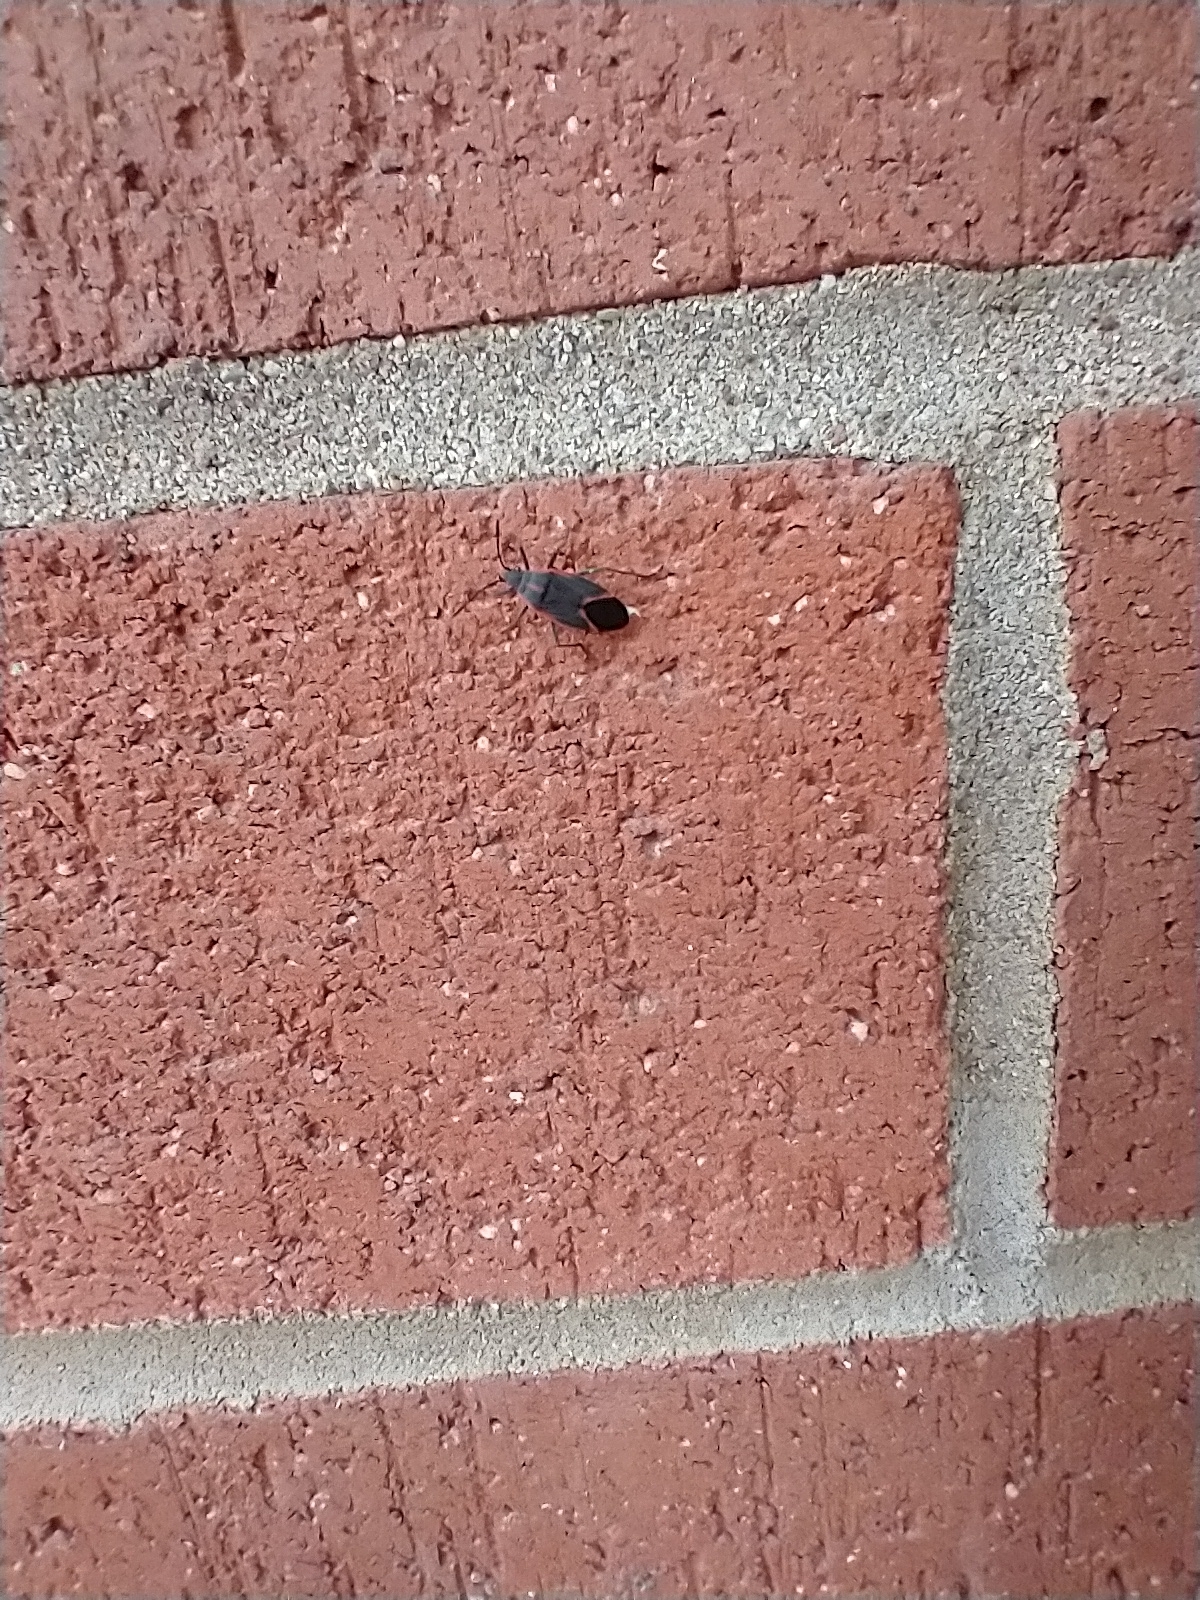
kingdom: Animalia
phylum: Arthropoda
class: Insecta
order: Hemiptera
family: Rhopalidae
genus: Boisea
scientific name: Boisea trivittata
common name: Boxelder bug
